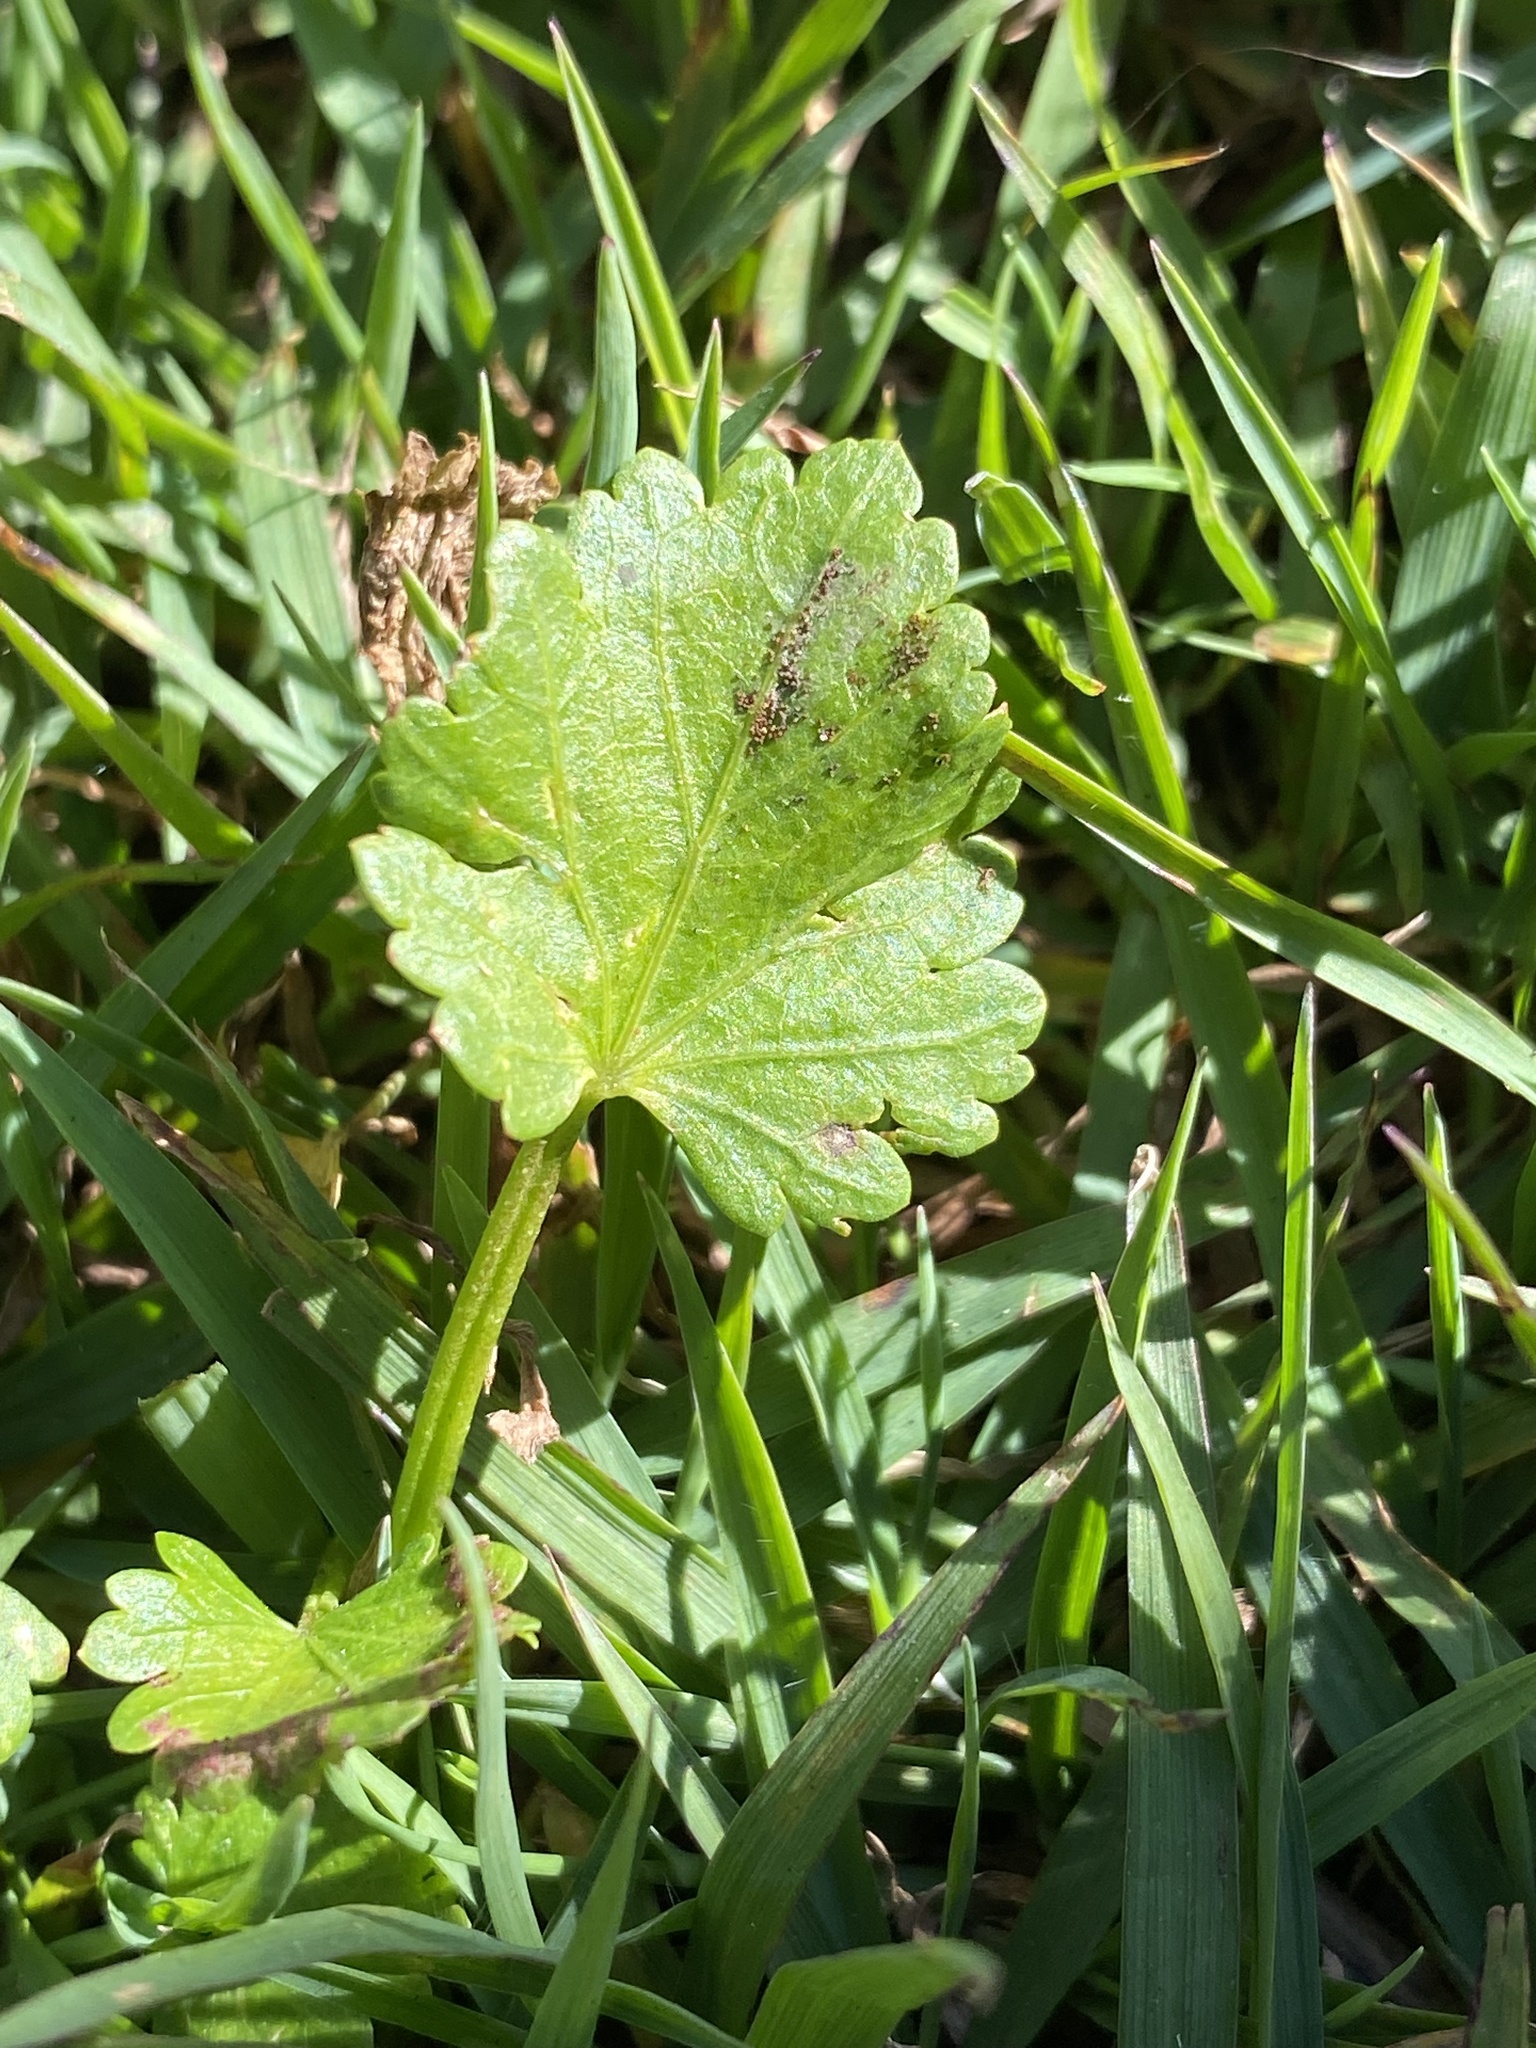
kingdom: Plantae
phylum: Tracheophyta
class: Magnoliopsida
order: Malvales
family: Malvaceae
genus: Modiola
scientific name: Modiola caroliniana
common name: Carolina bristlemallow
